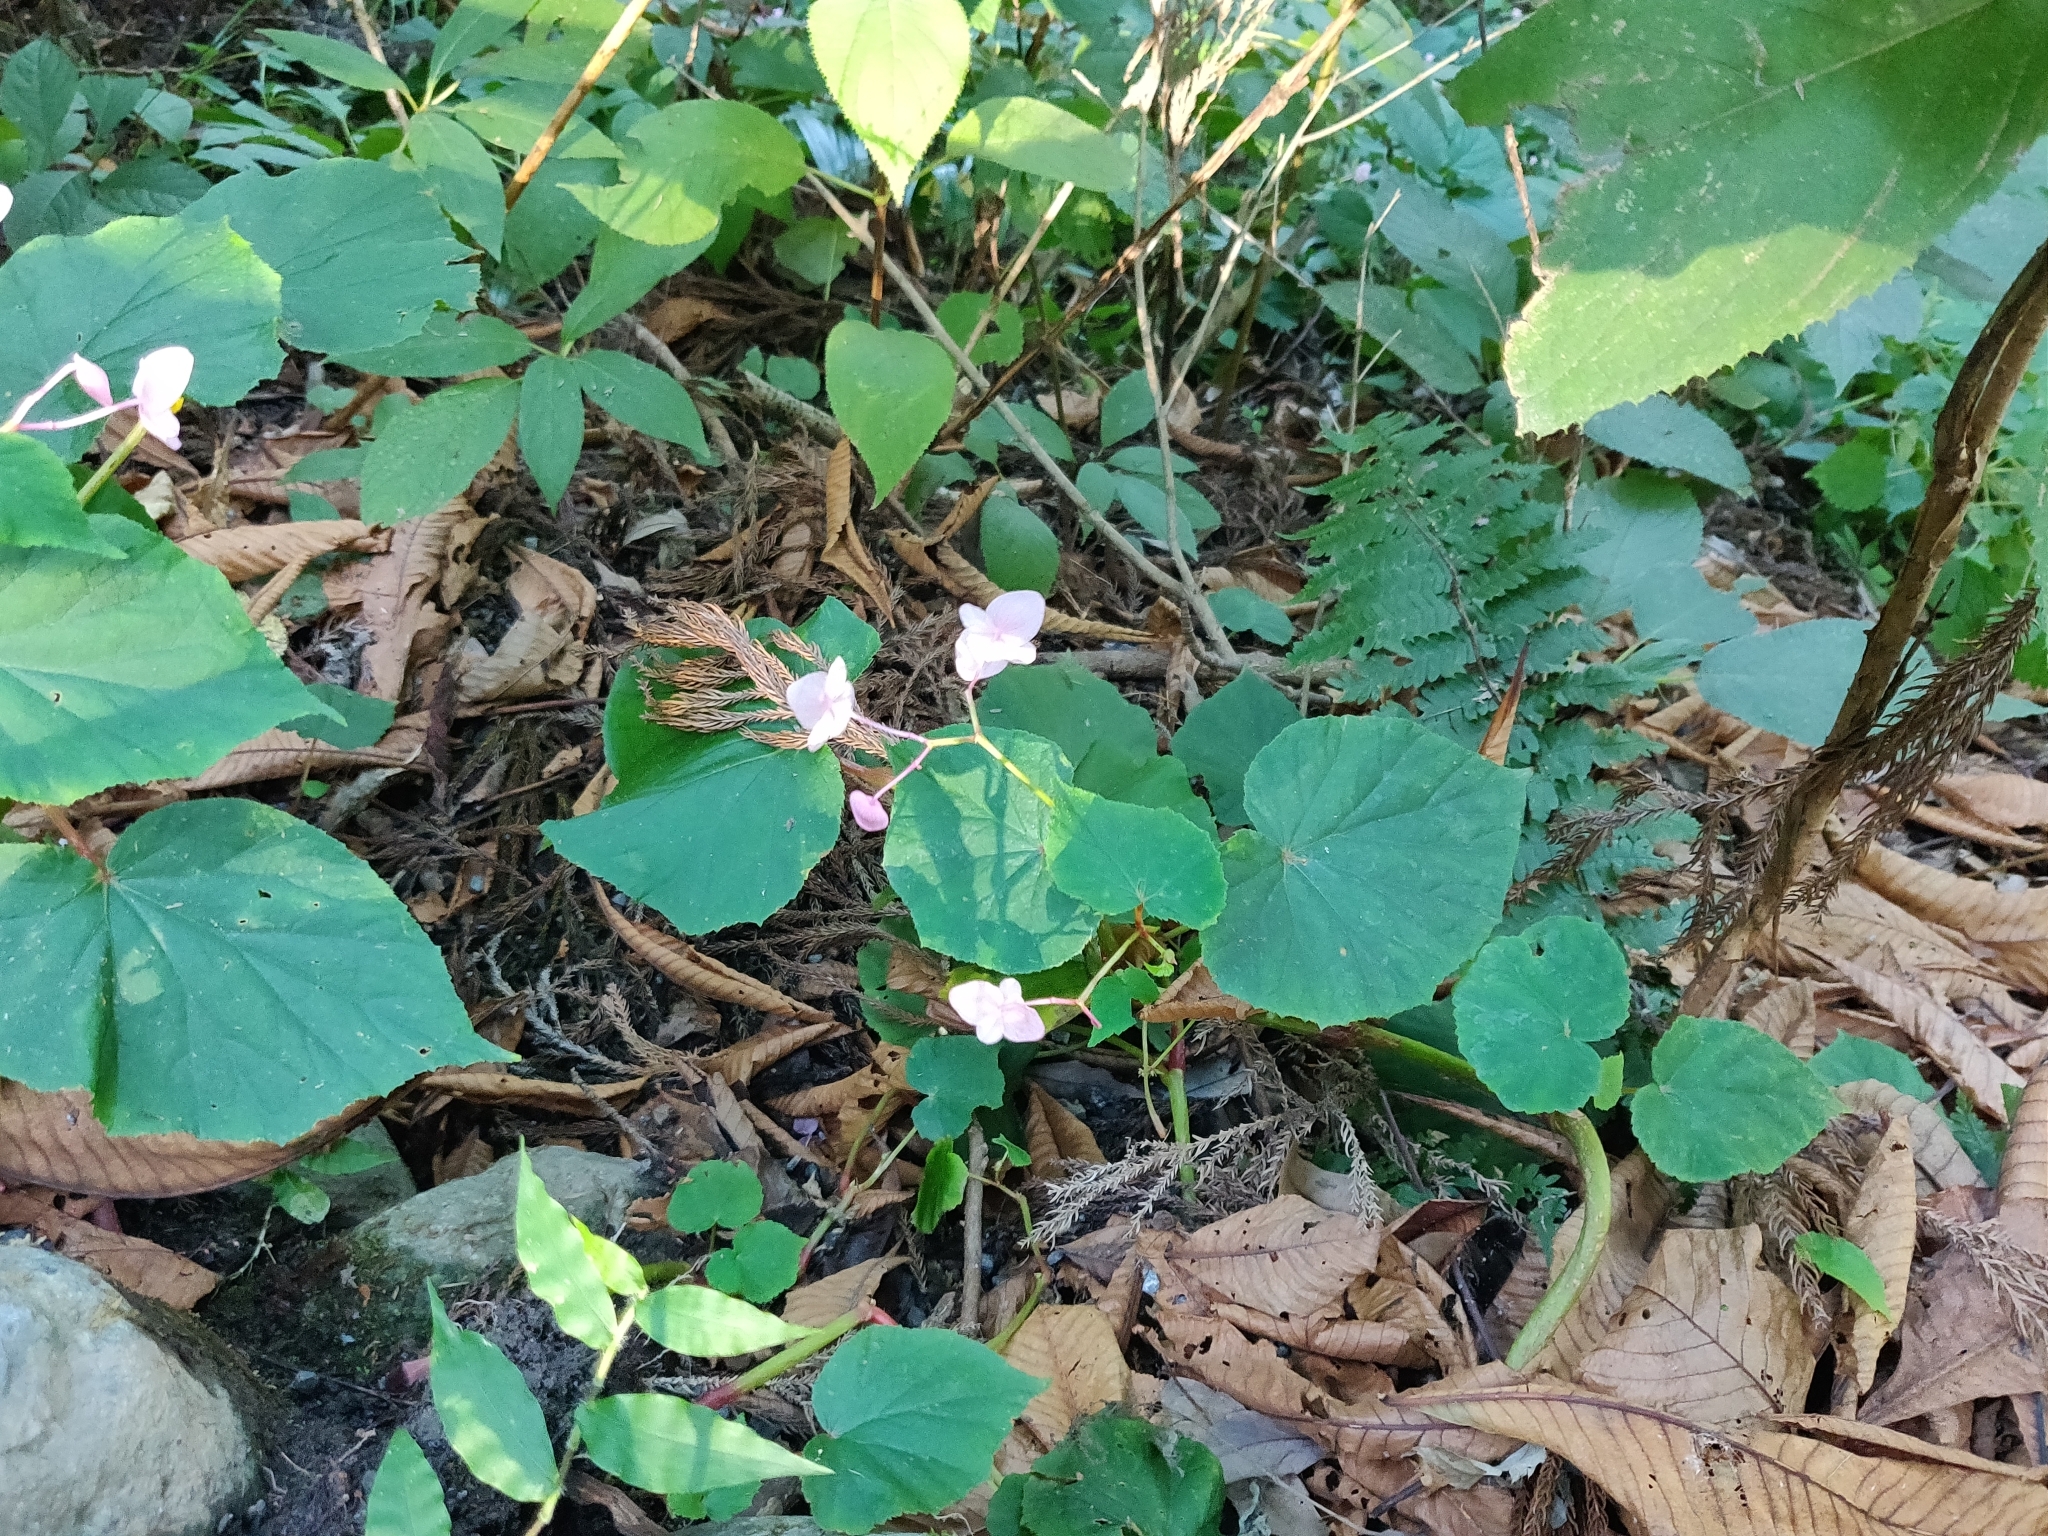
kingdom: Plantae
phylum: Tracheophyta
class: Magnoliopsida
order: Cucurbitales
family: Begoniaceae
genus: Begonia
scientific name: Begonia grandis
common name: Hardy begonia
